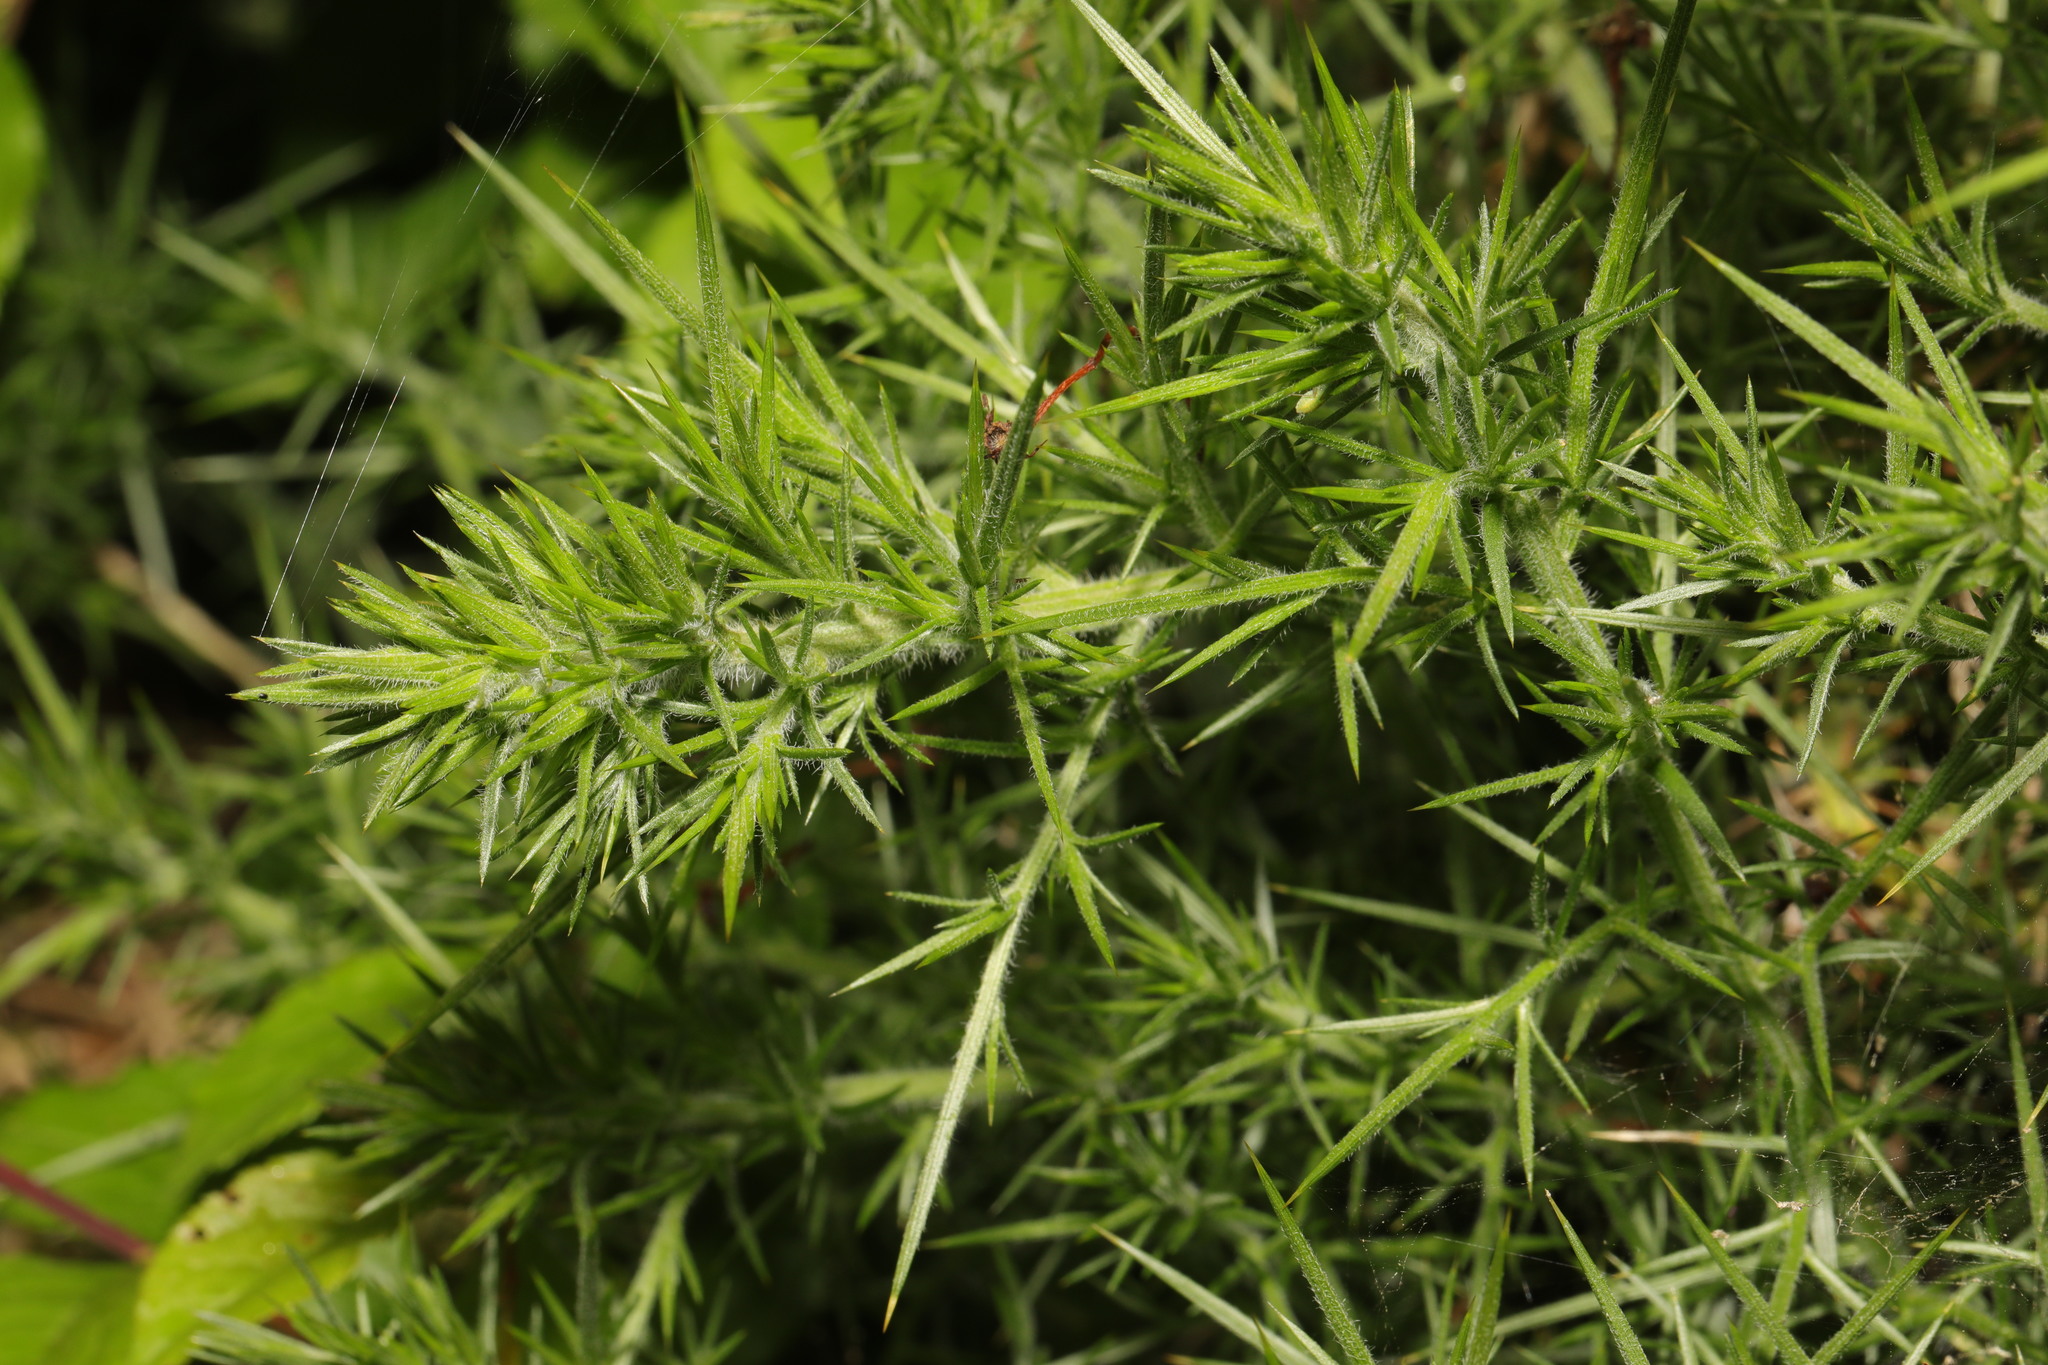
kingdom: Plantae
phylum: Tracheophyta
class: Magnoliopsida
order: Fabales
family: Fabaceae
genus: Ulex
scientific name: Ulex europaeus
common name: Common gorse
